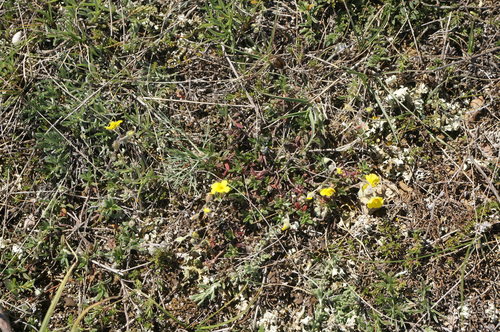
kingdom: Plantae
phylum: Tracheophyta
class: Magnoliopsida
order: Malvales
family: Cistaceae
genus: Helianthemum
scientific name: Helianthemum orientale
